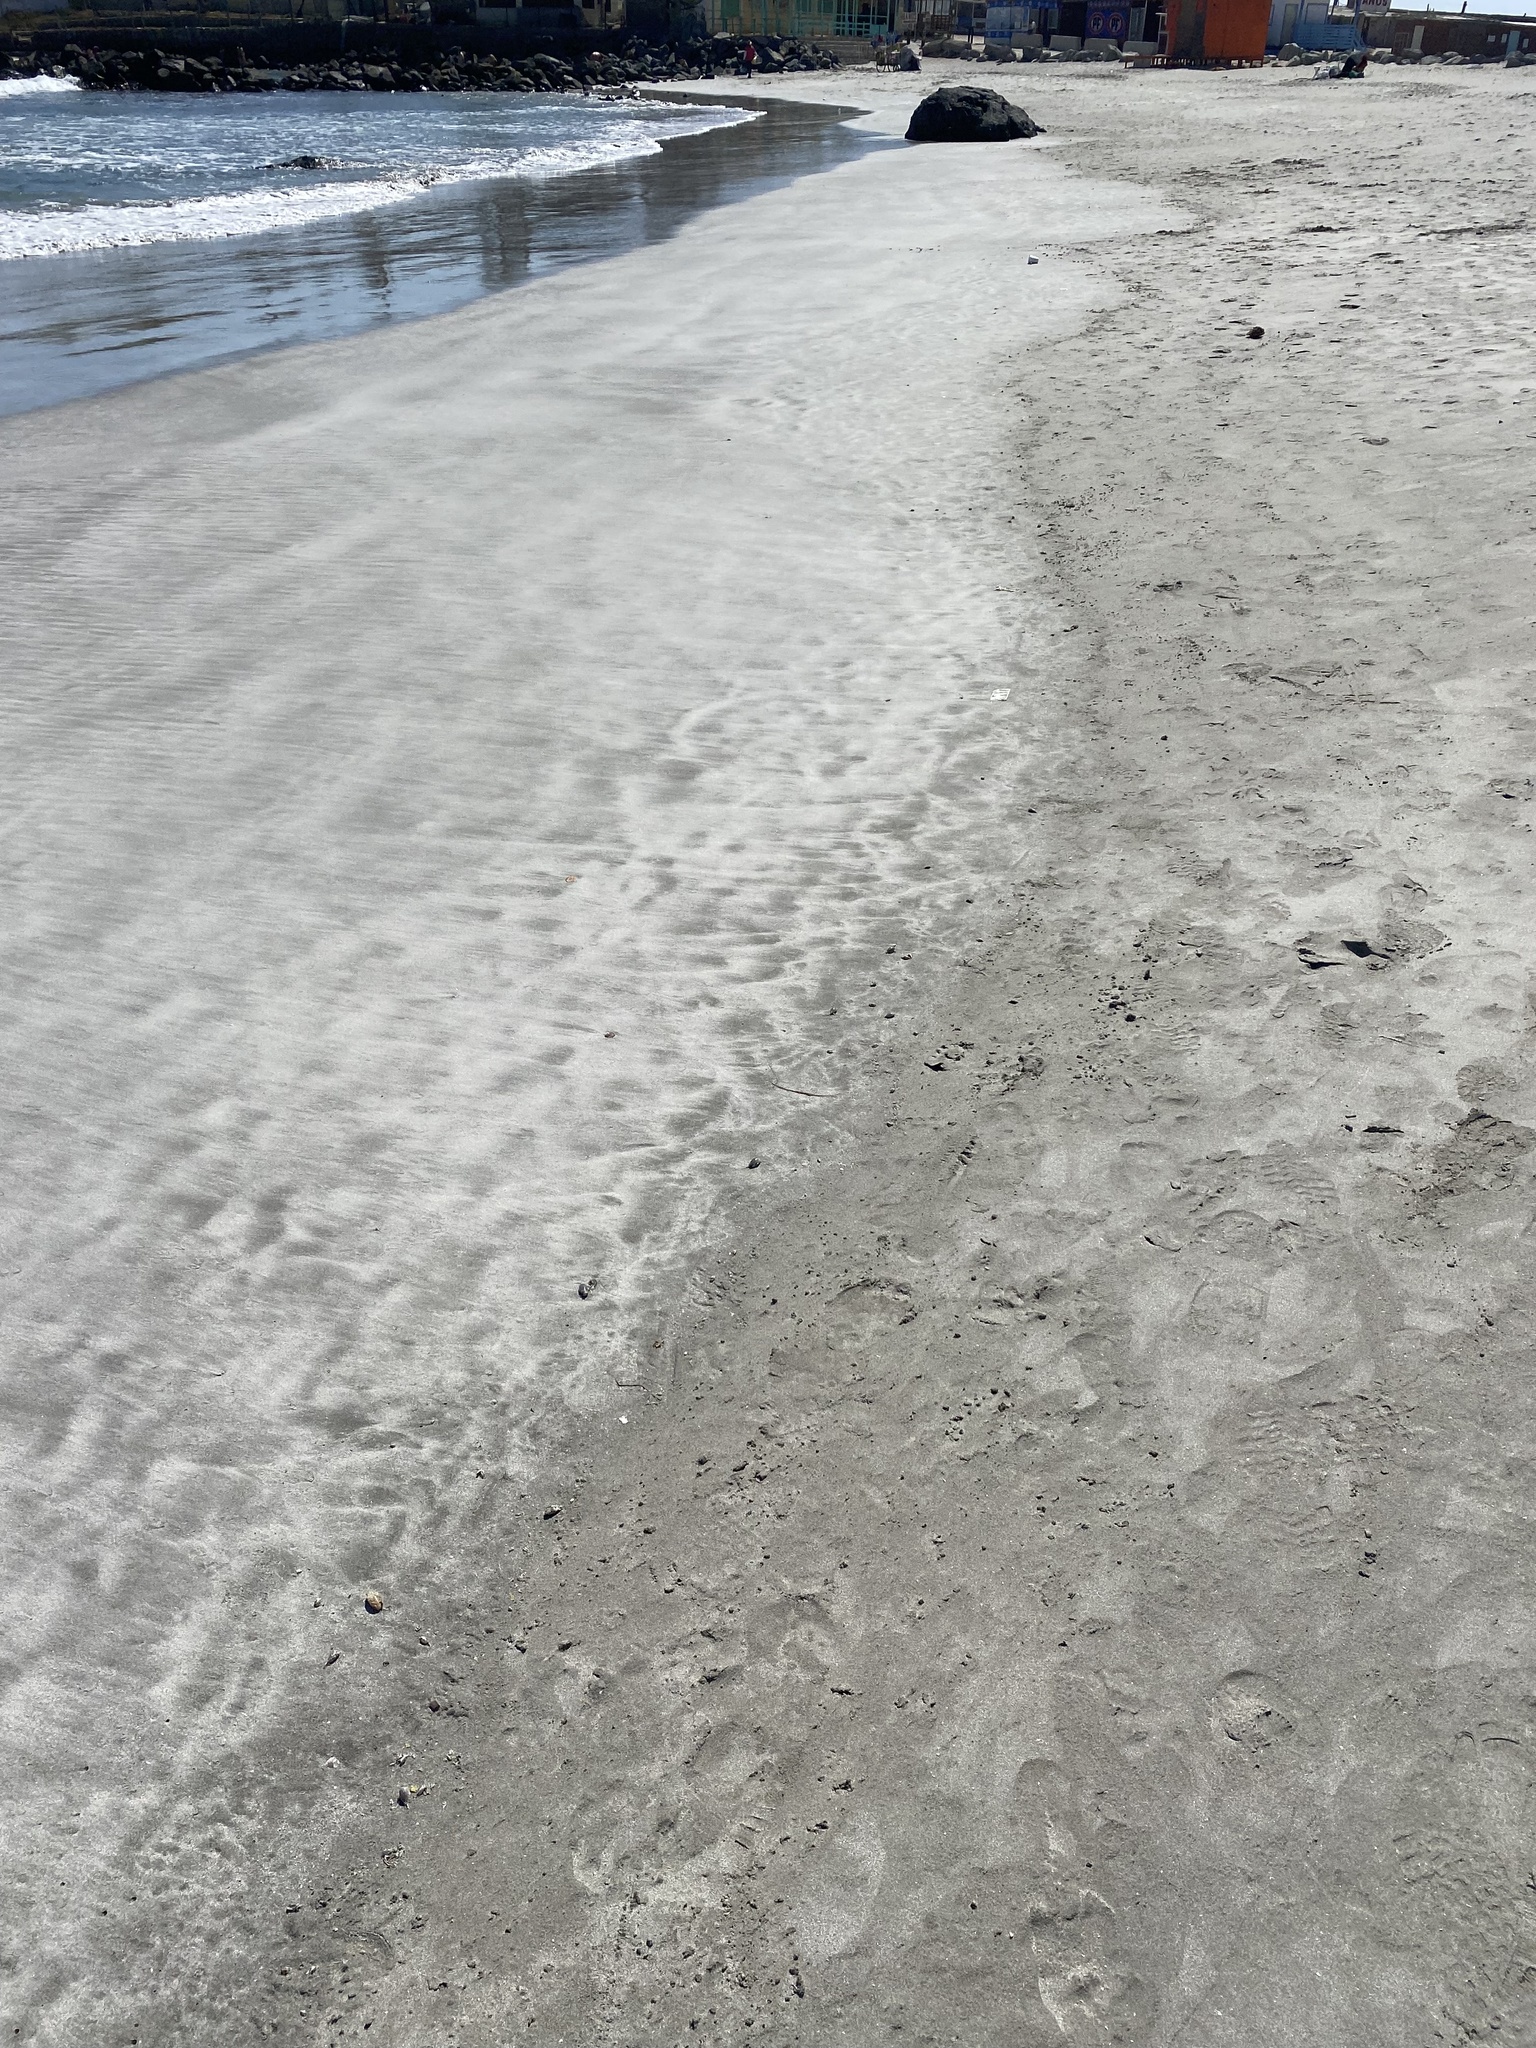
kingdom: Animalia
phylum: Arthropoda
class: Malacostraca
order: Decapoda
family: Hippidae
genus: Emerita
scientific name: Emerita analoga
